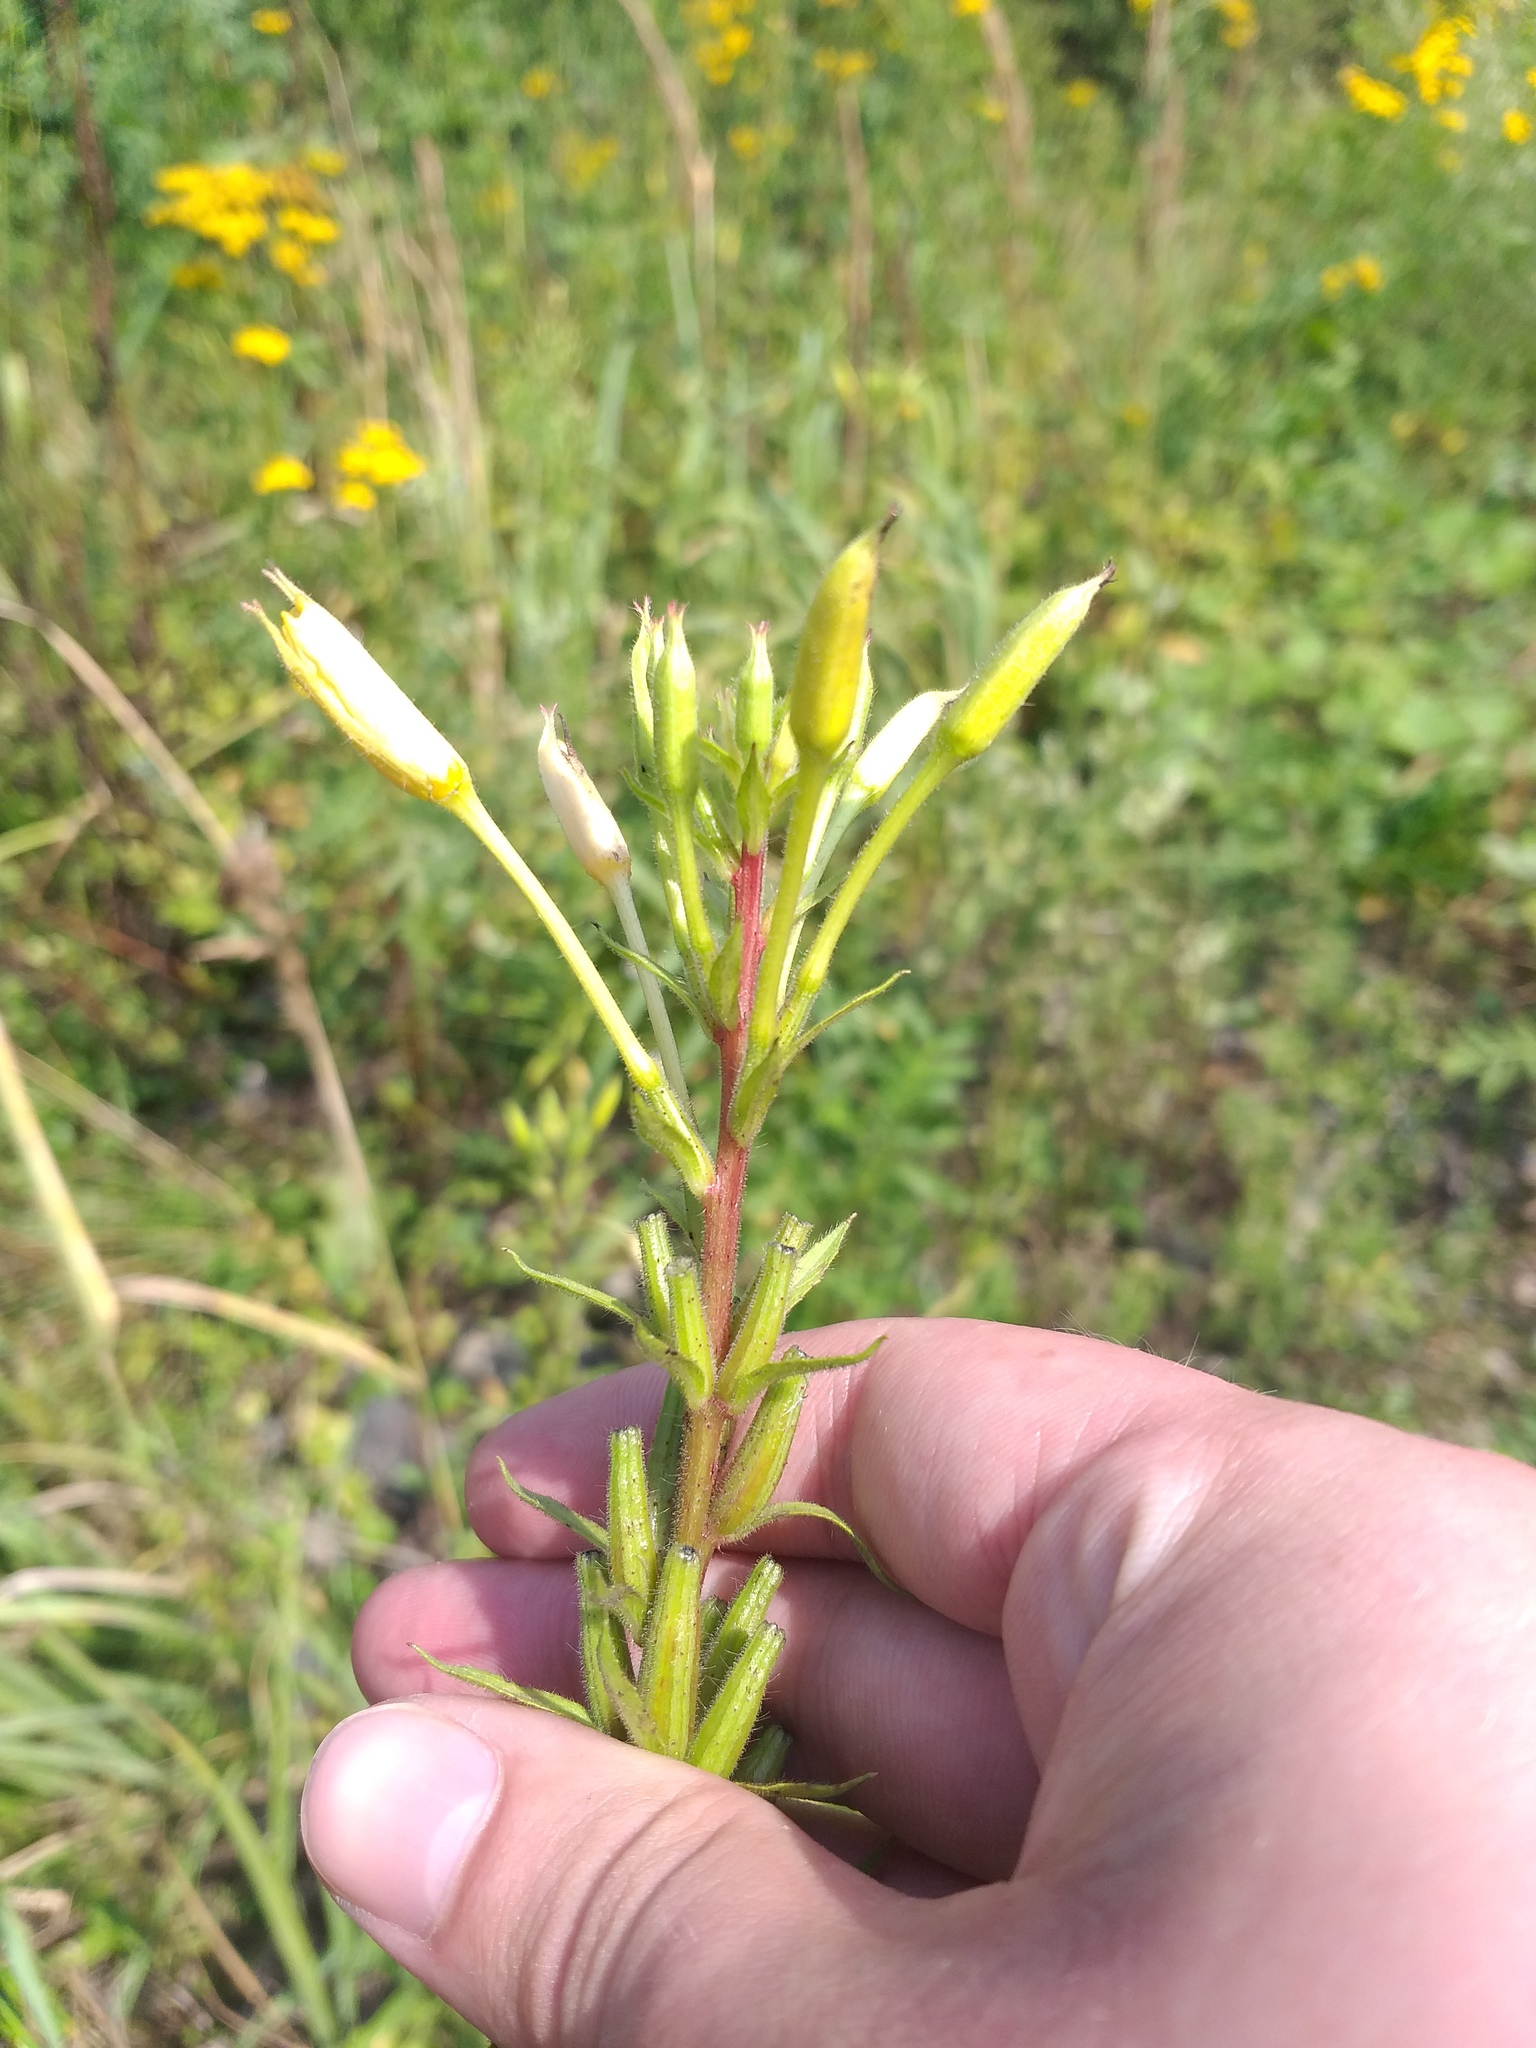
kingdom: Plantae
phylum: Tracheophyta
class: Magnoliopsida
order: Myrtales
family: Onagraceae
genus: Oenothera
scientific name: Oenothera rubricaulis
